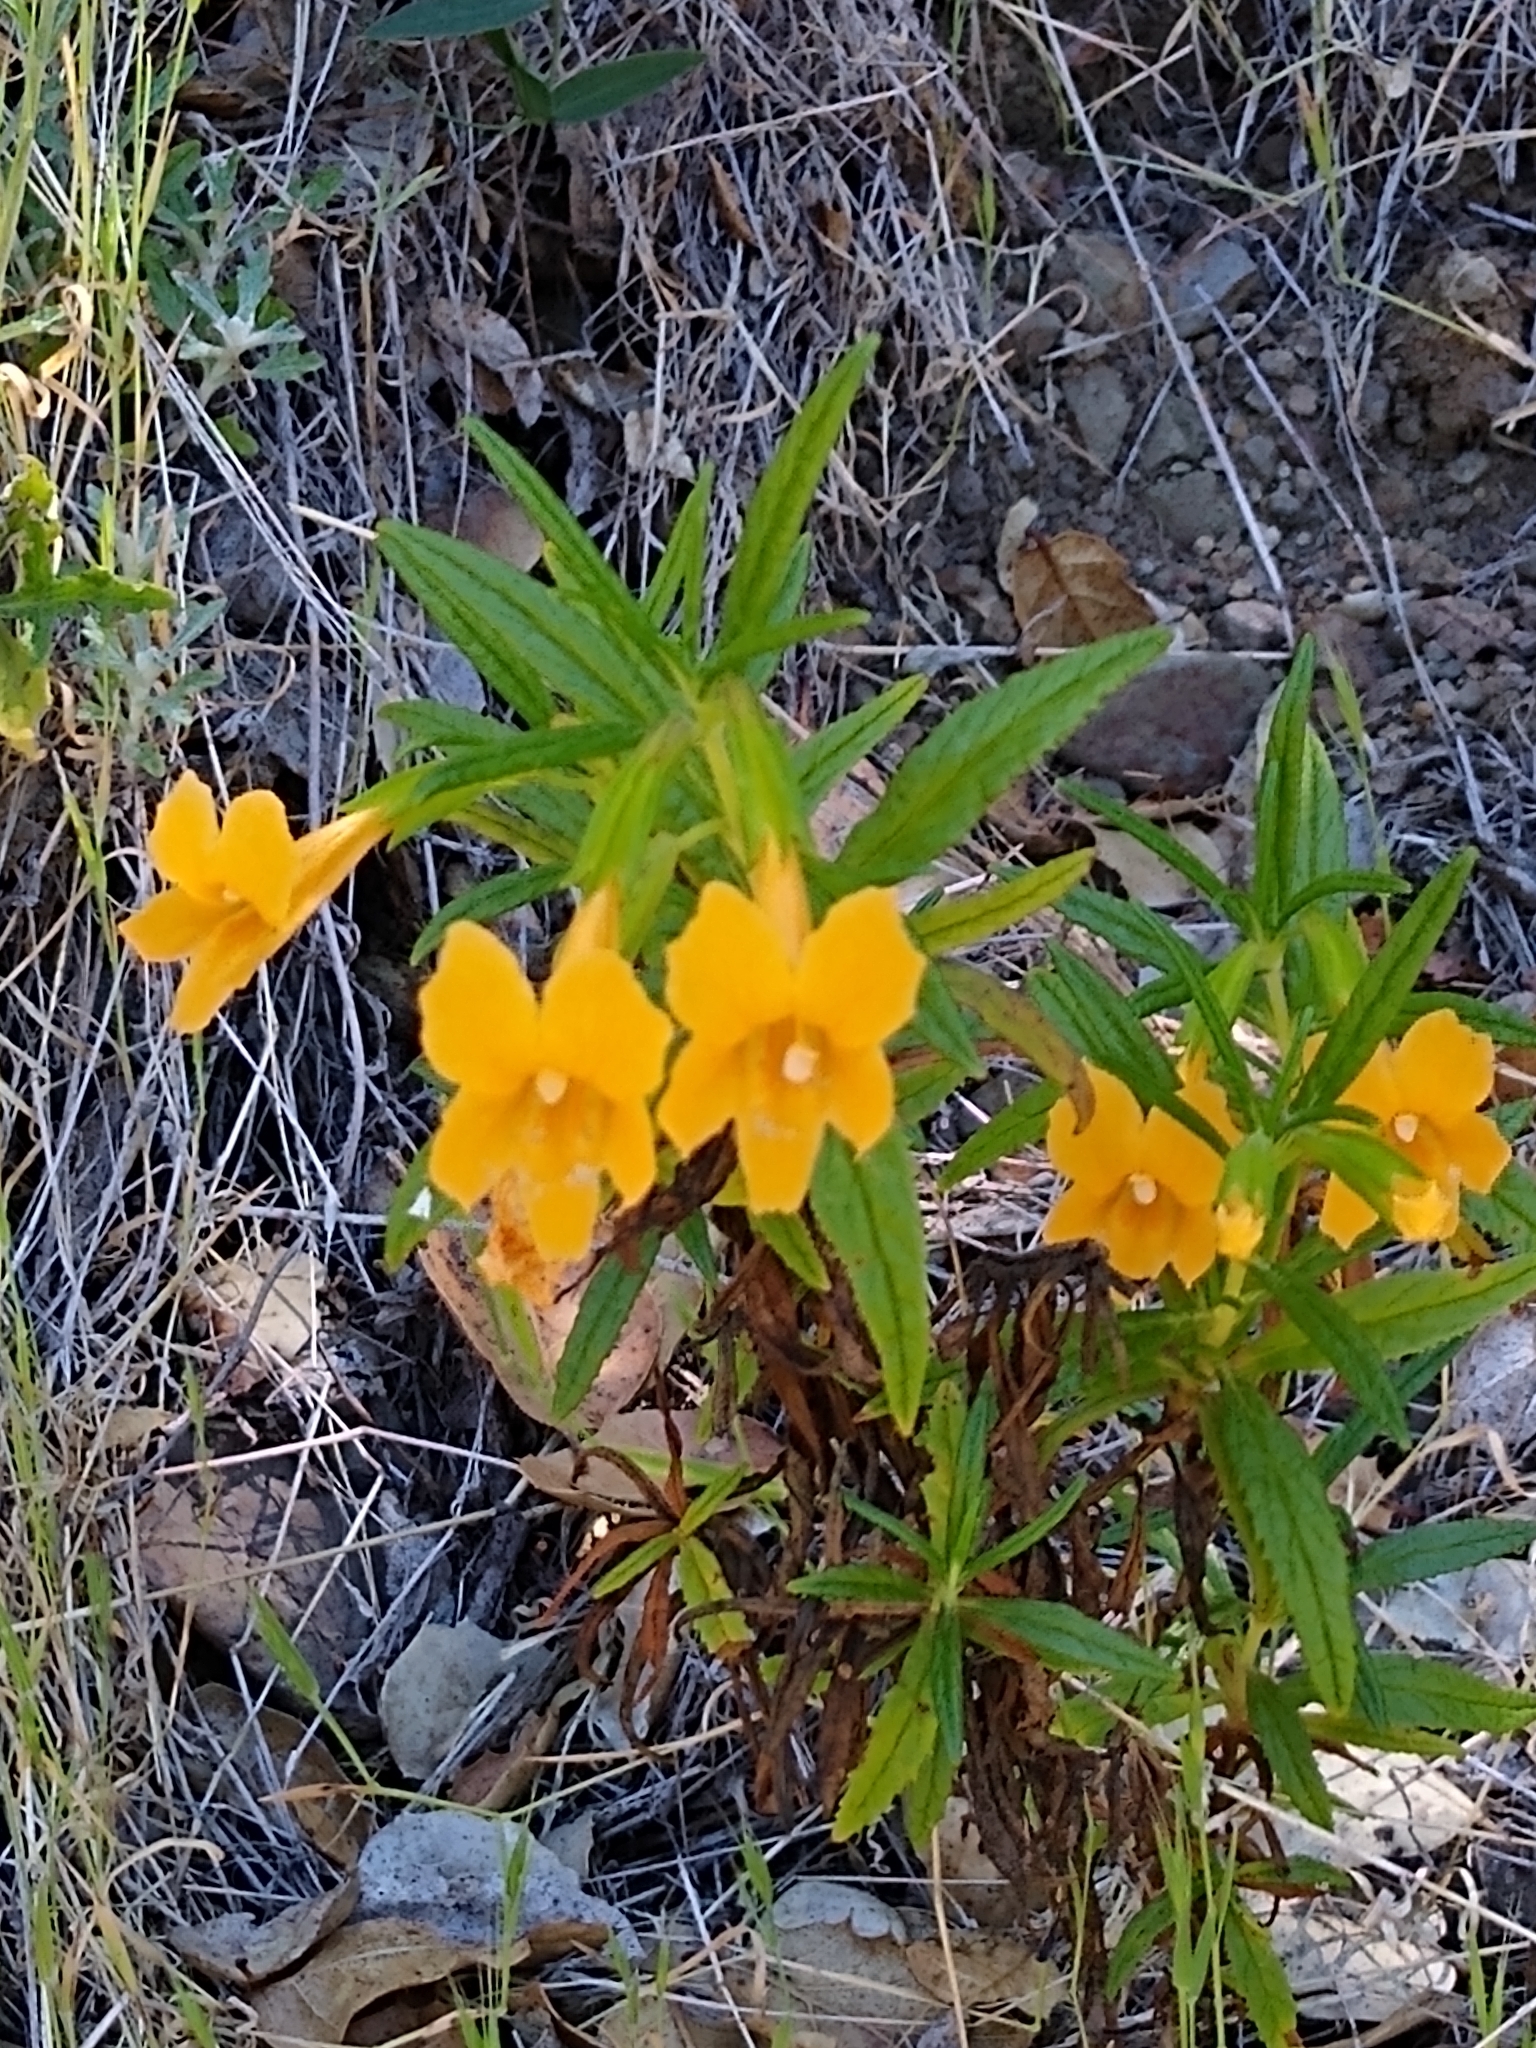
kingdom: Plantae
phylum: Tracheophyta
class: Magnoliopsida
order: Lamiales
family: Phrymaceae
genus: Diplacus
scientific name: Diplacus aurantiacus
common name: Bush monkey-flower
